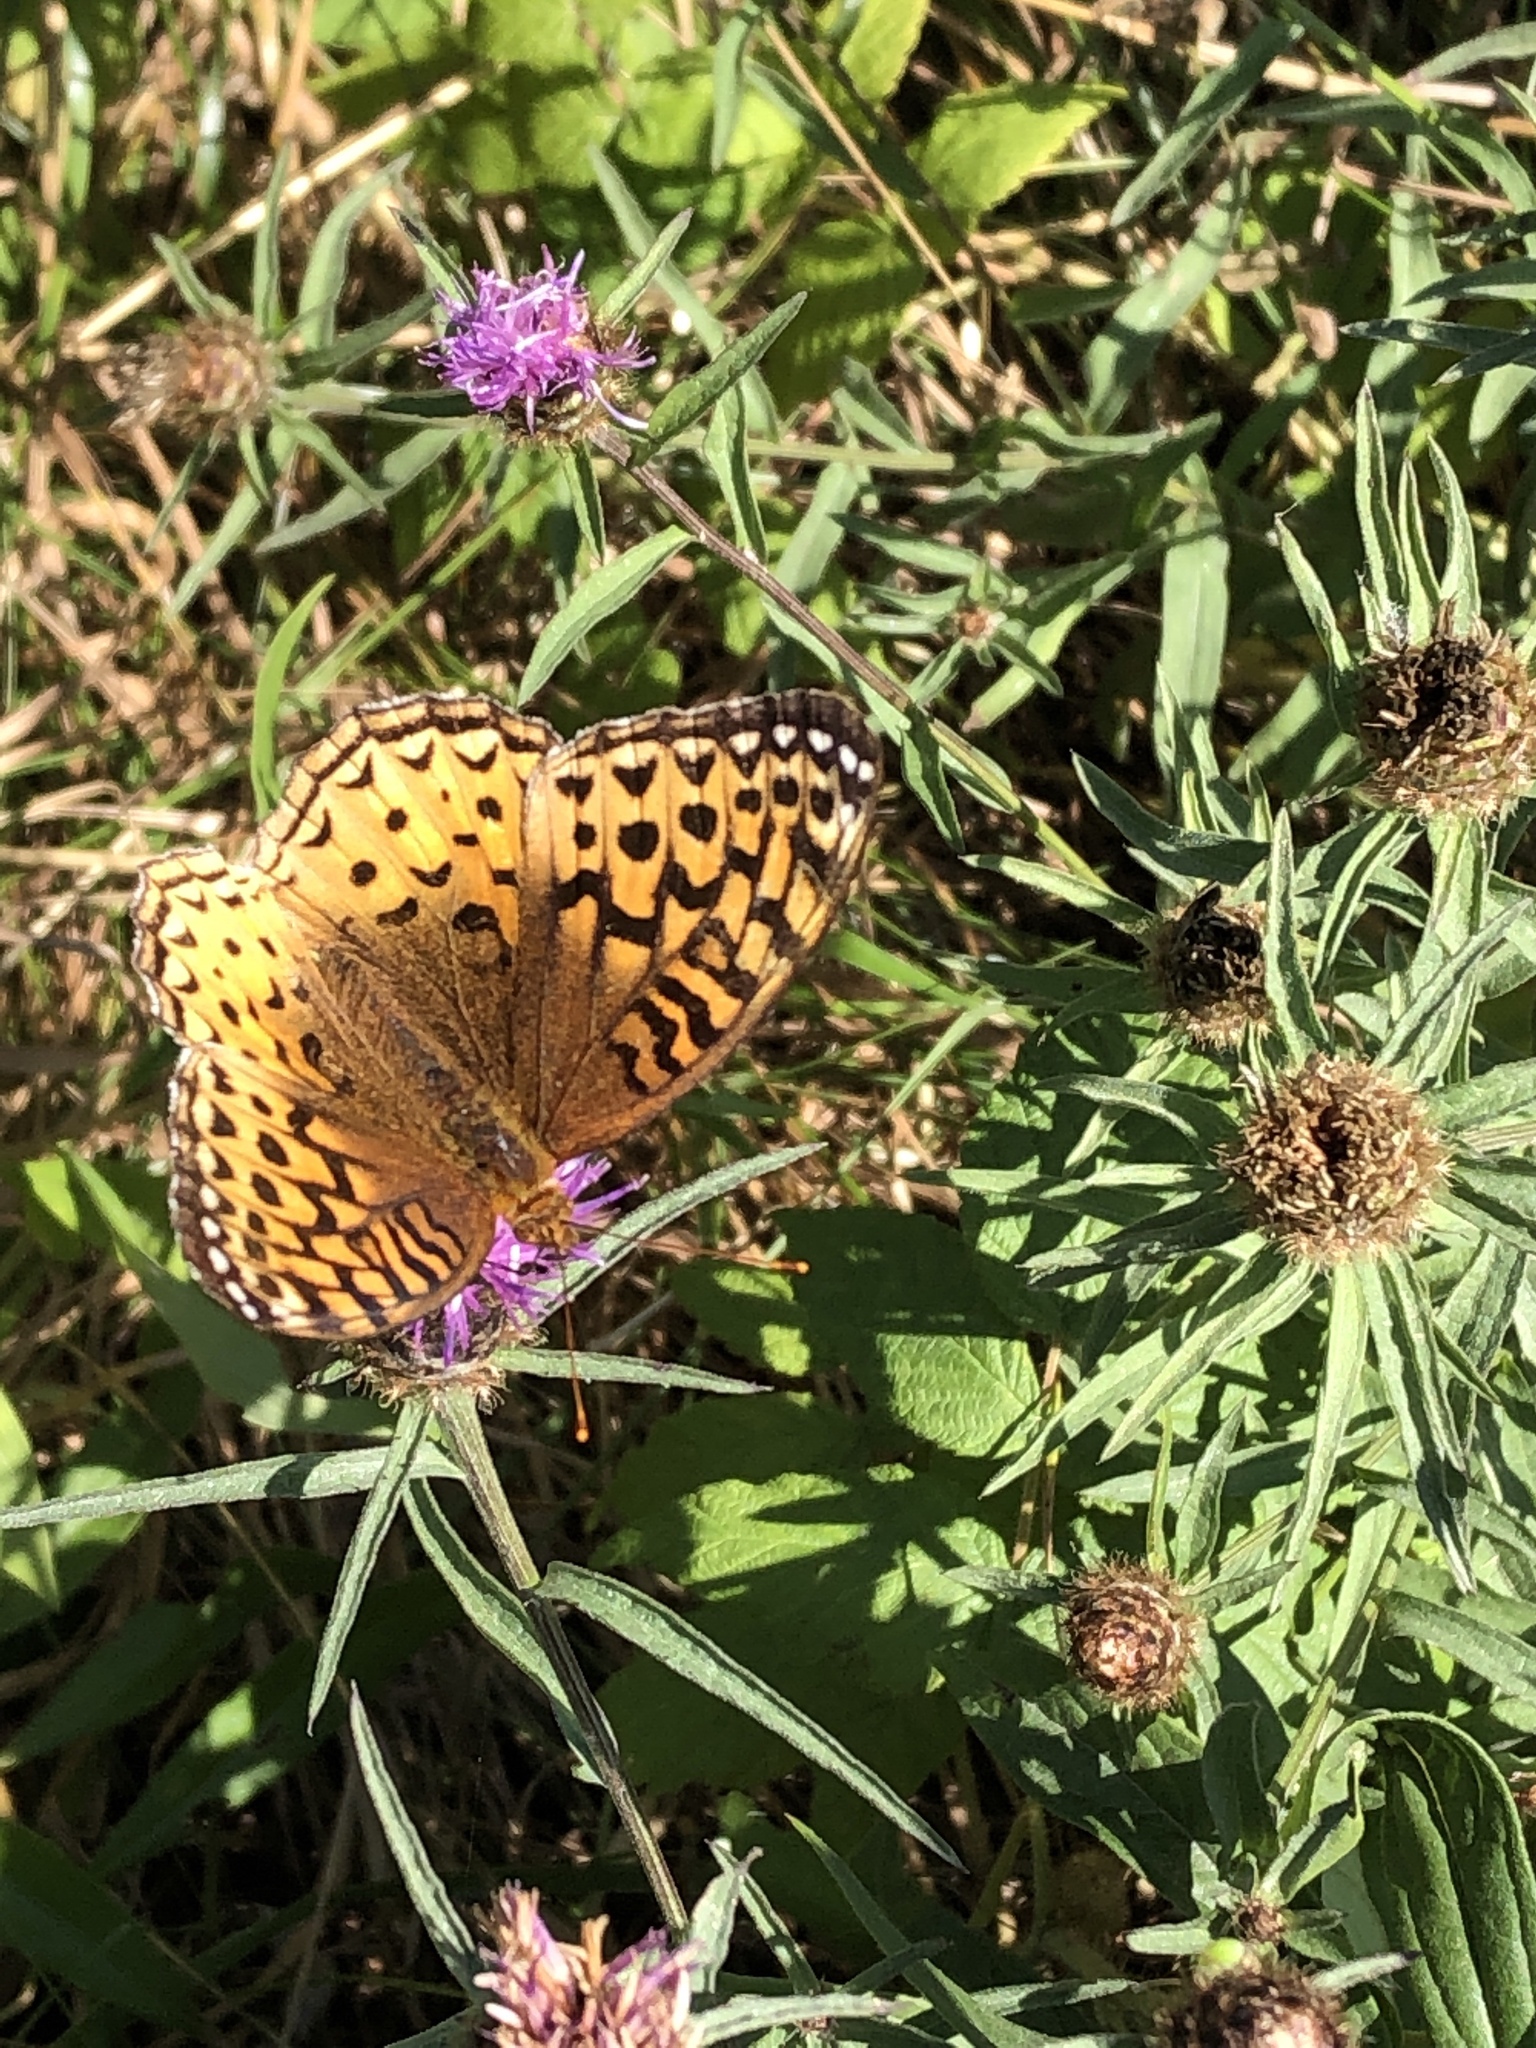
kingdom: Animalia
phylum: Arthropoda
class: Insecta
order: Lepidoptera
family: Nymphalidae
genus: Speyeria
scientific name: Speyeria cybele
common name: Great spangled fritillary
